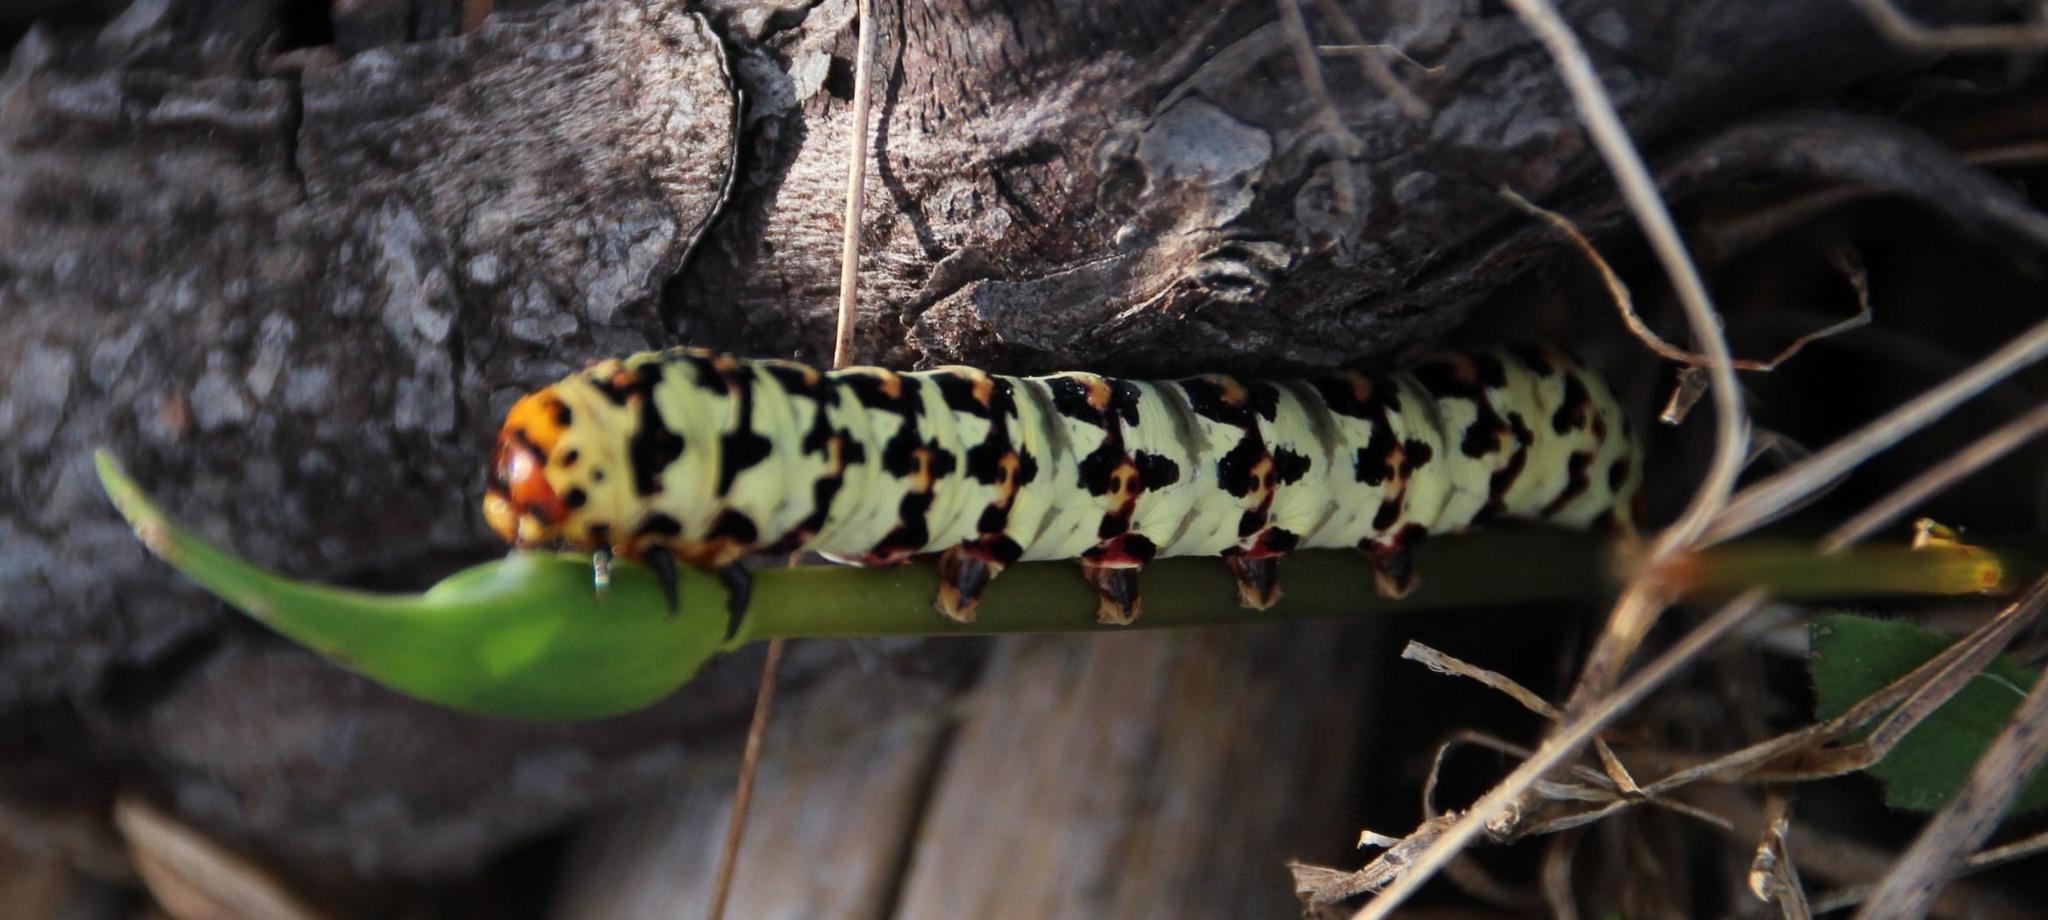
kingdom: Animalia
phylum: Arthropoda
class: Insecta
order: Lepidoptera
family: Noctuidae
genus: Diaphone
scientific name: Diaphone eumela
